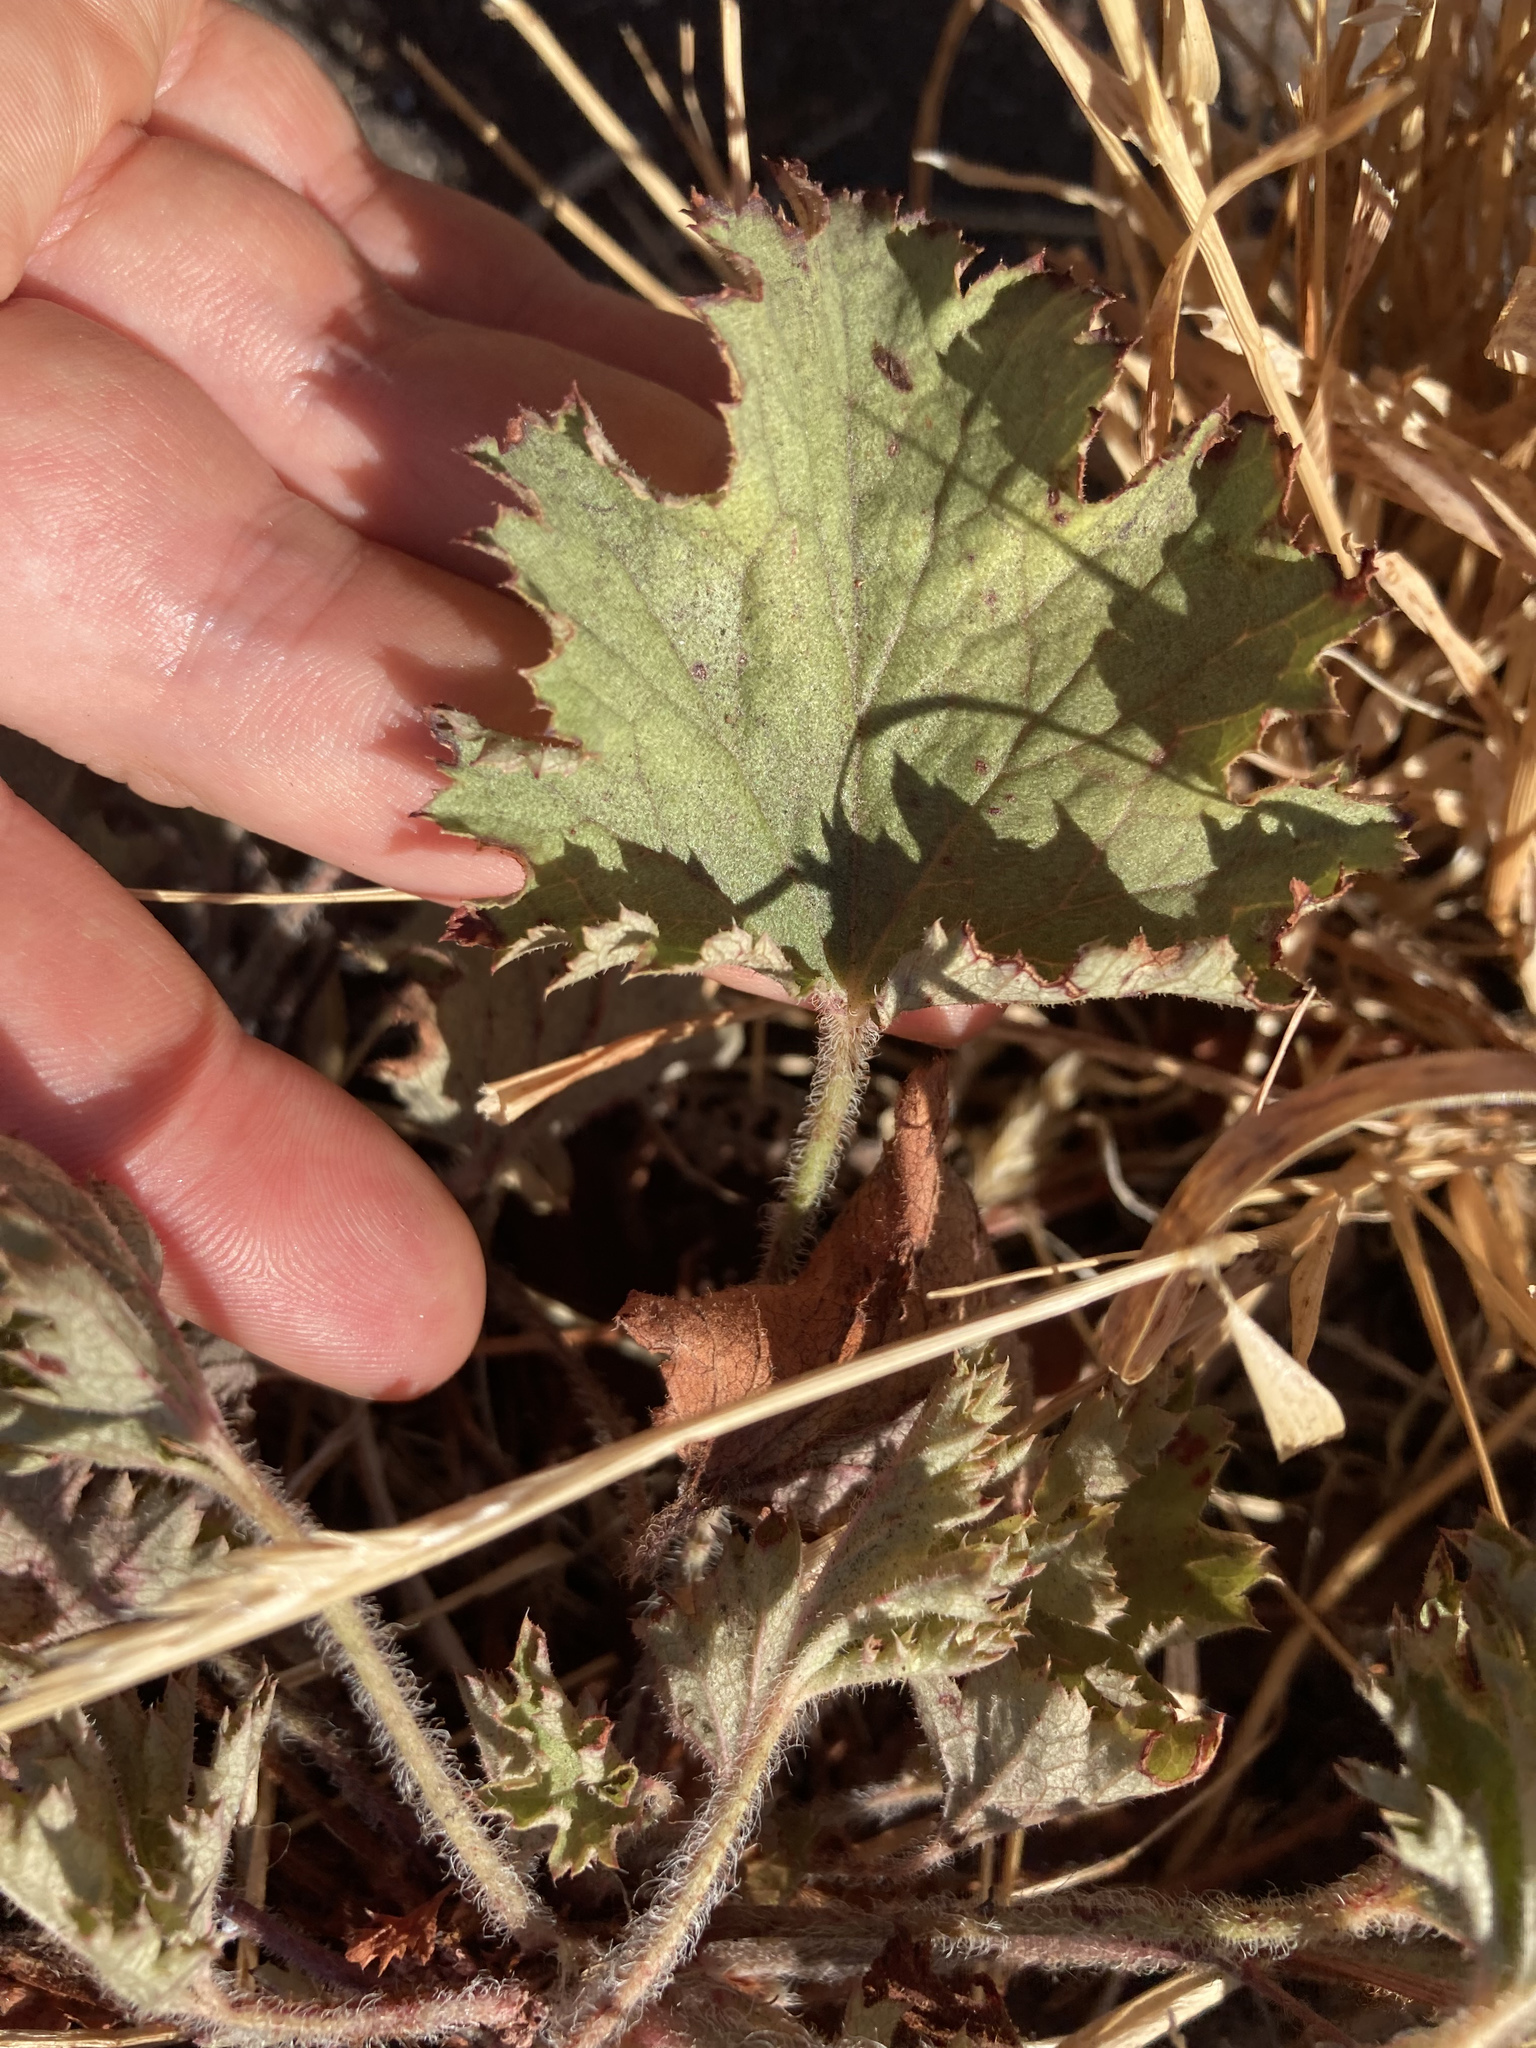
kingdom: Plantae
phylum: Tracheophyta
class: Magnoliopsida
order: Saxifragales
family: Saxifragaceae
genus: Heuchera
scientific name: Heuchera micrantha
